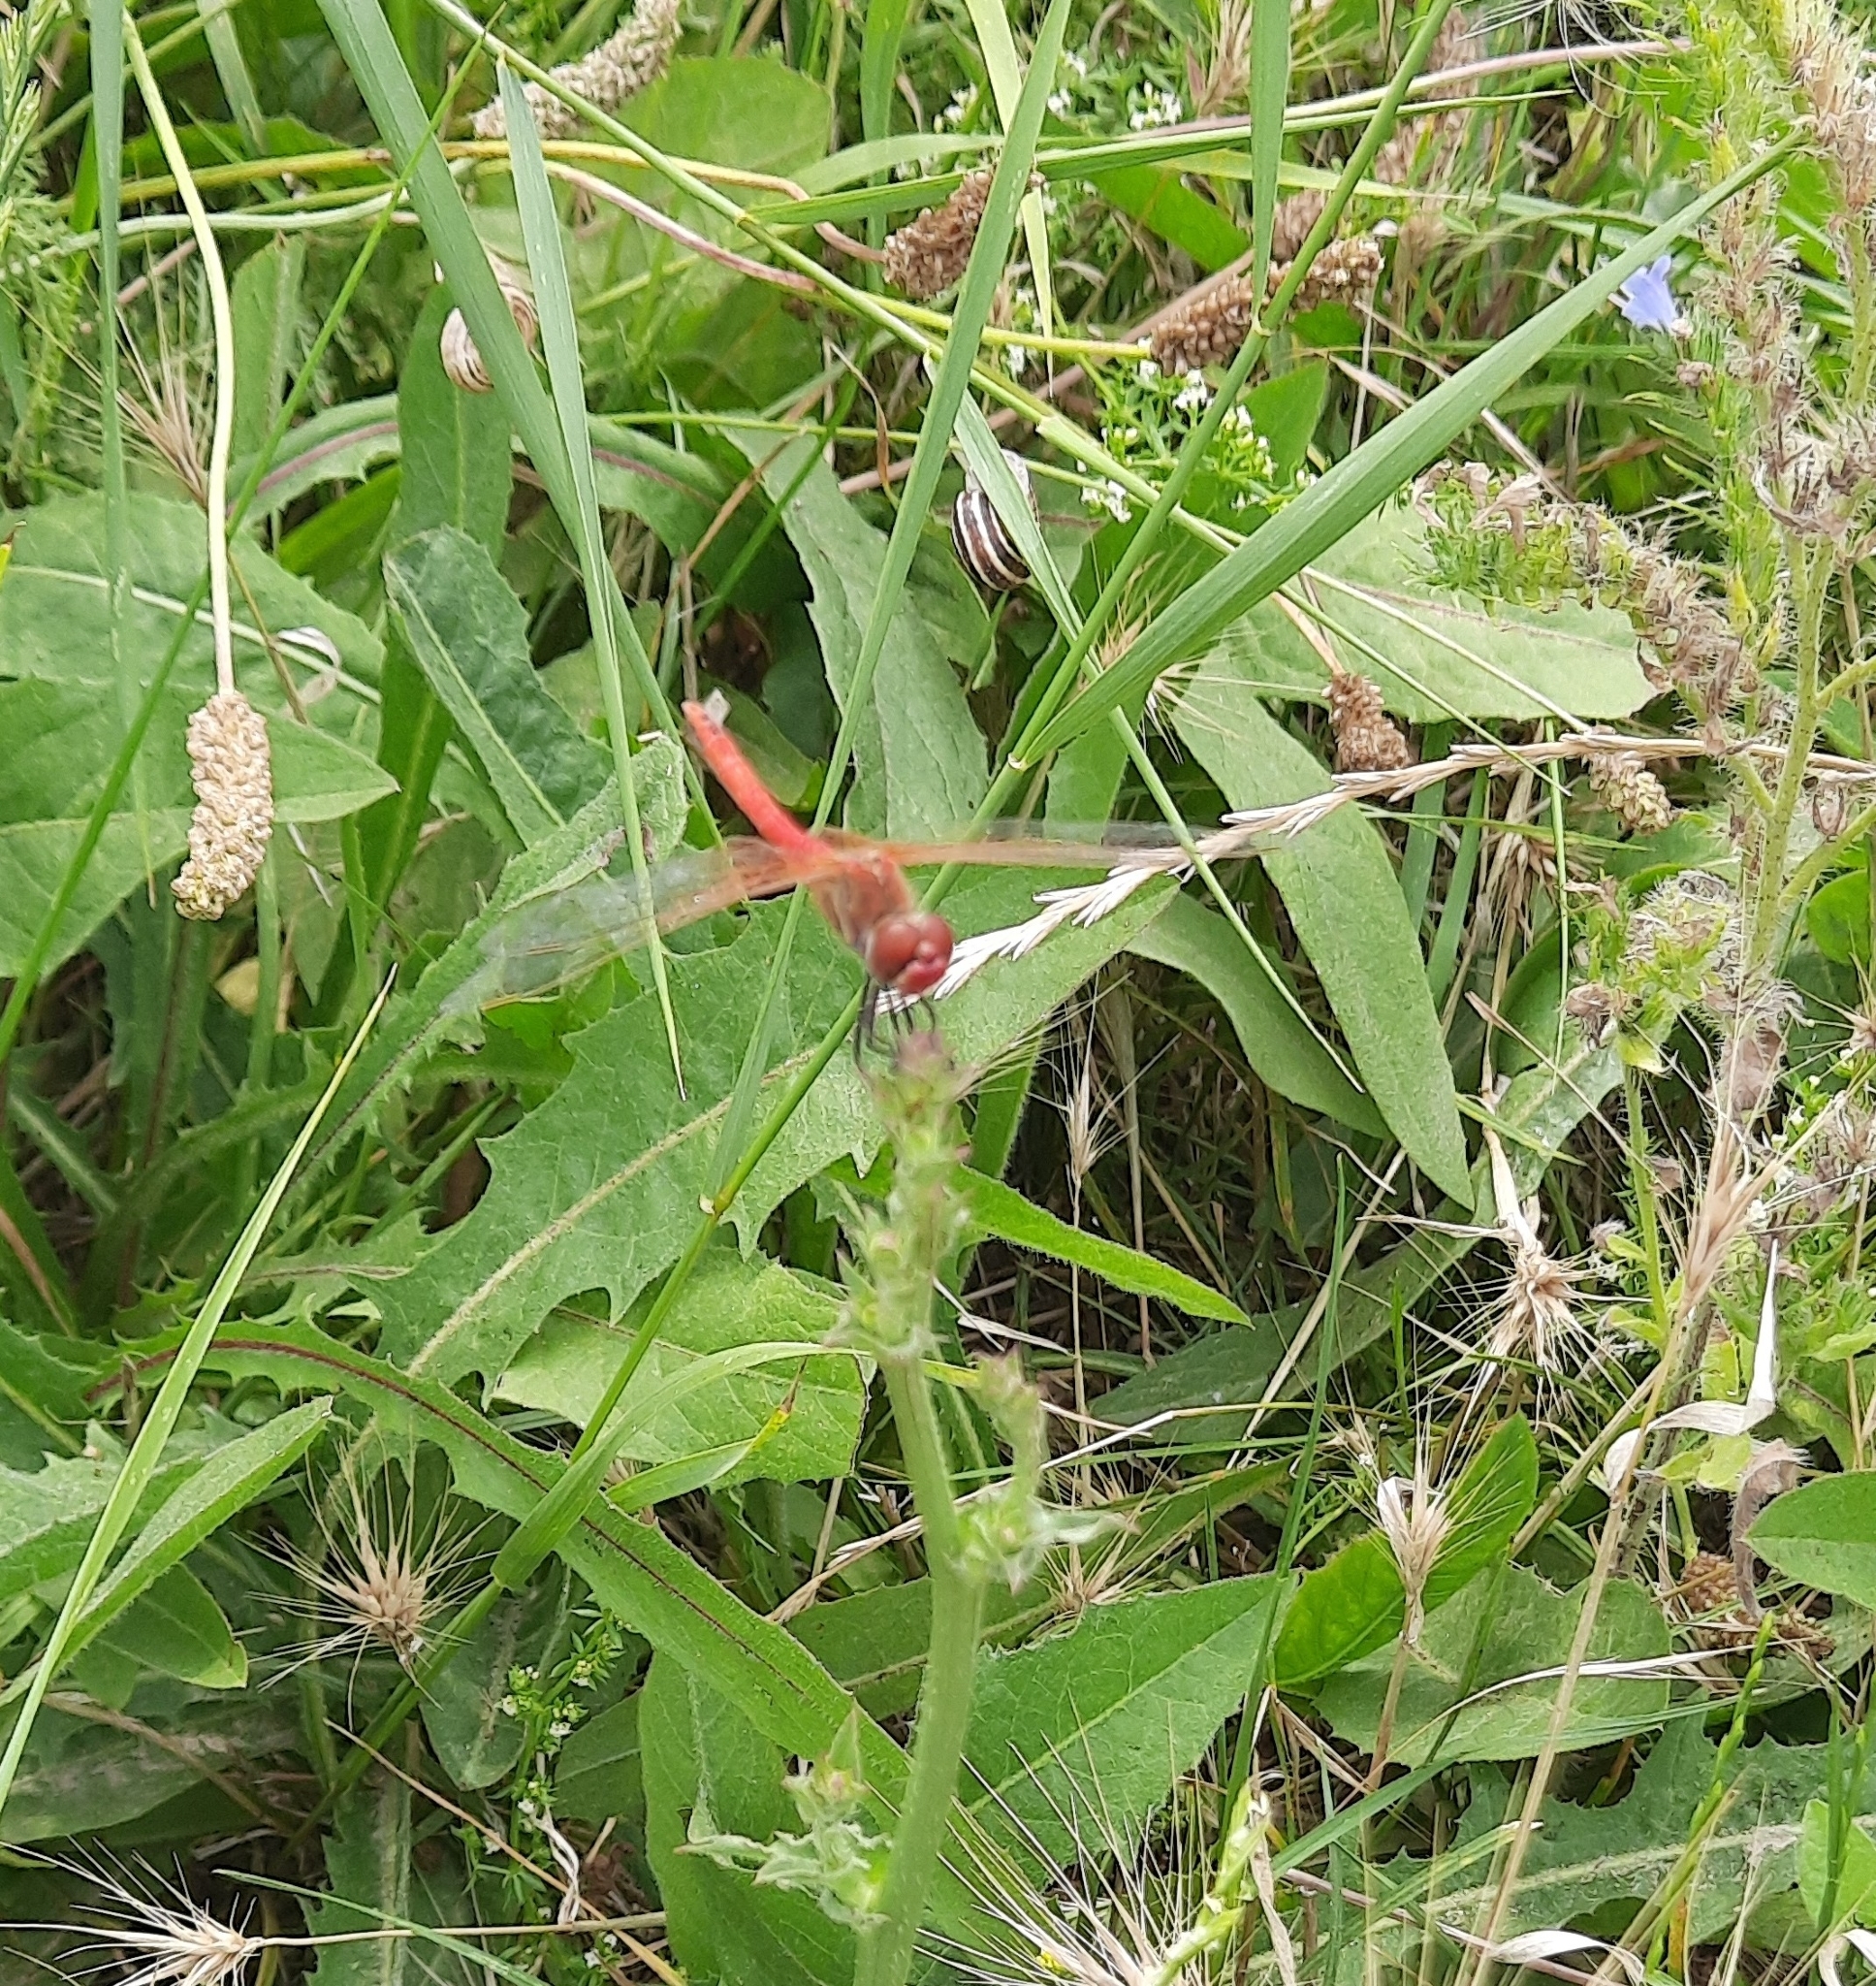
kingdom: Animalia
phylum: Arthropoda
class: Insecta
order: Odonata
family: Libellulidae
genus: Sympetrum
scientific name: Sympetrum fonscolombii
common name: Red-veined darter
